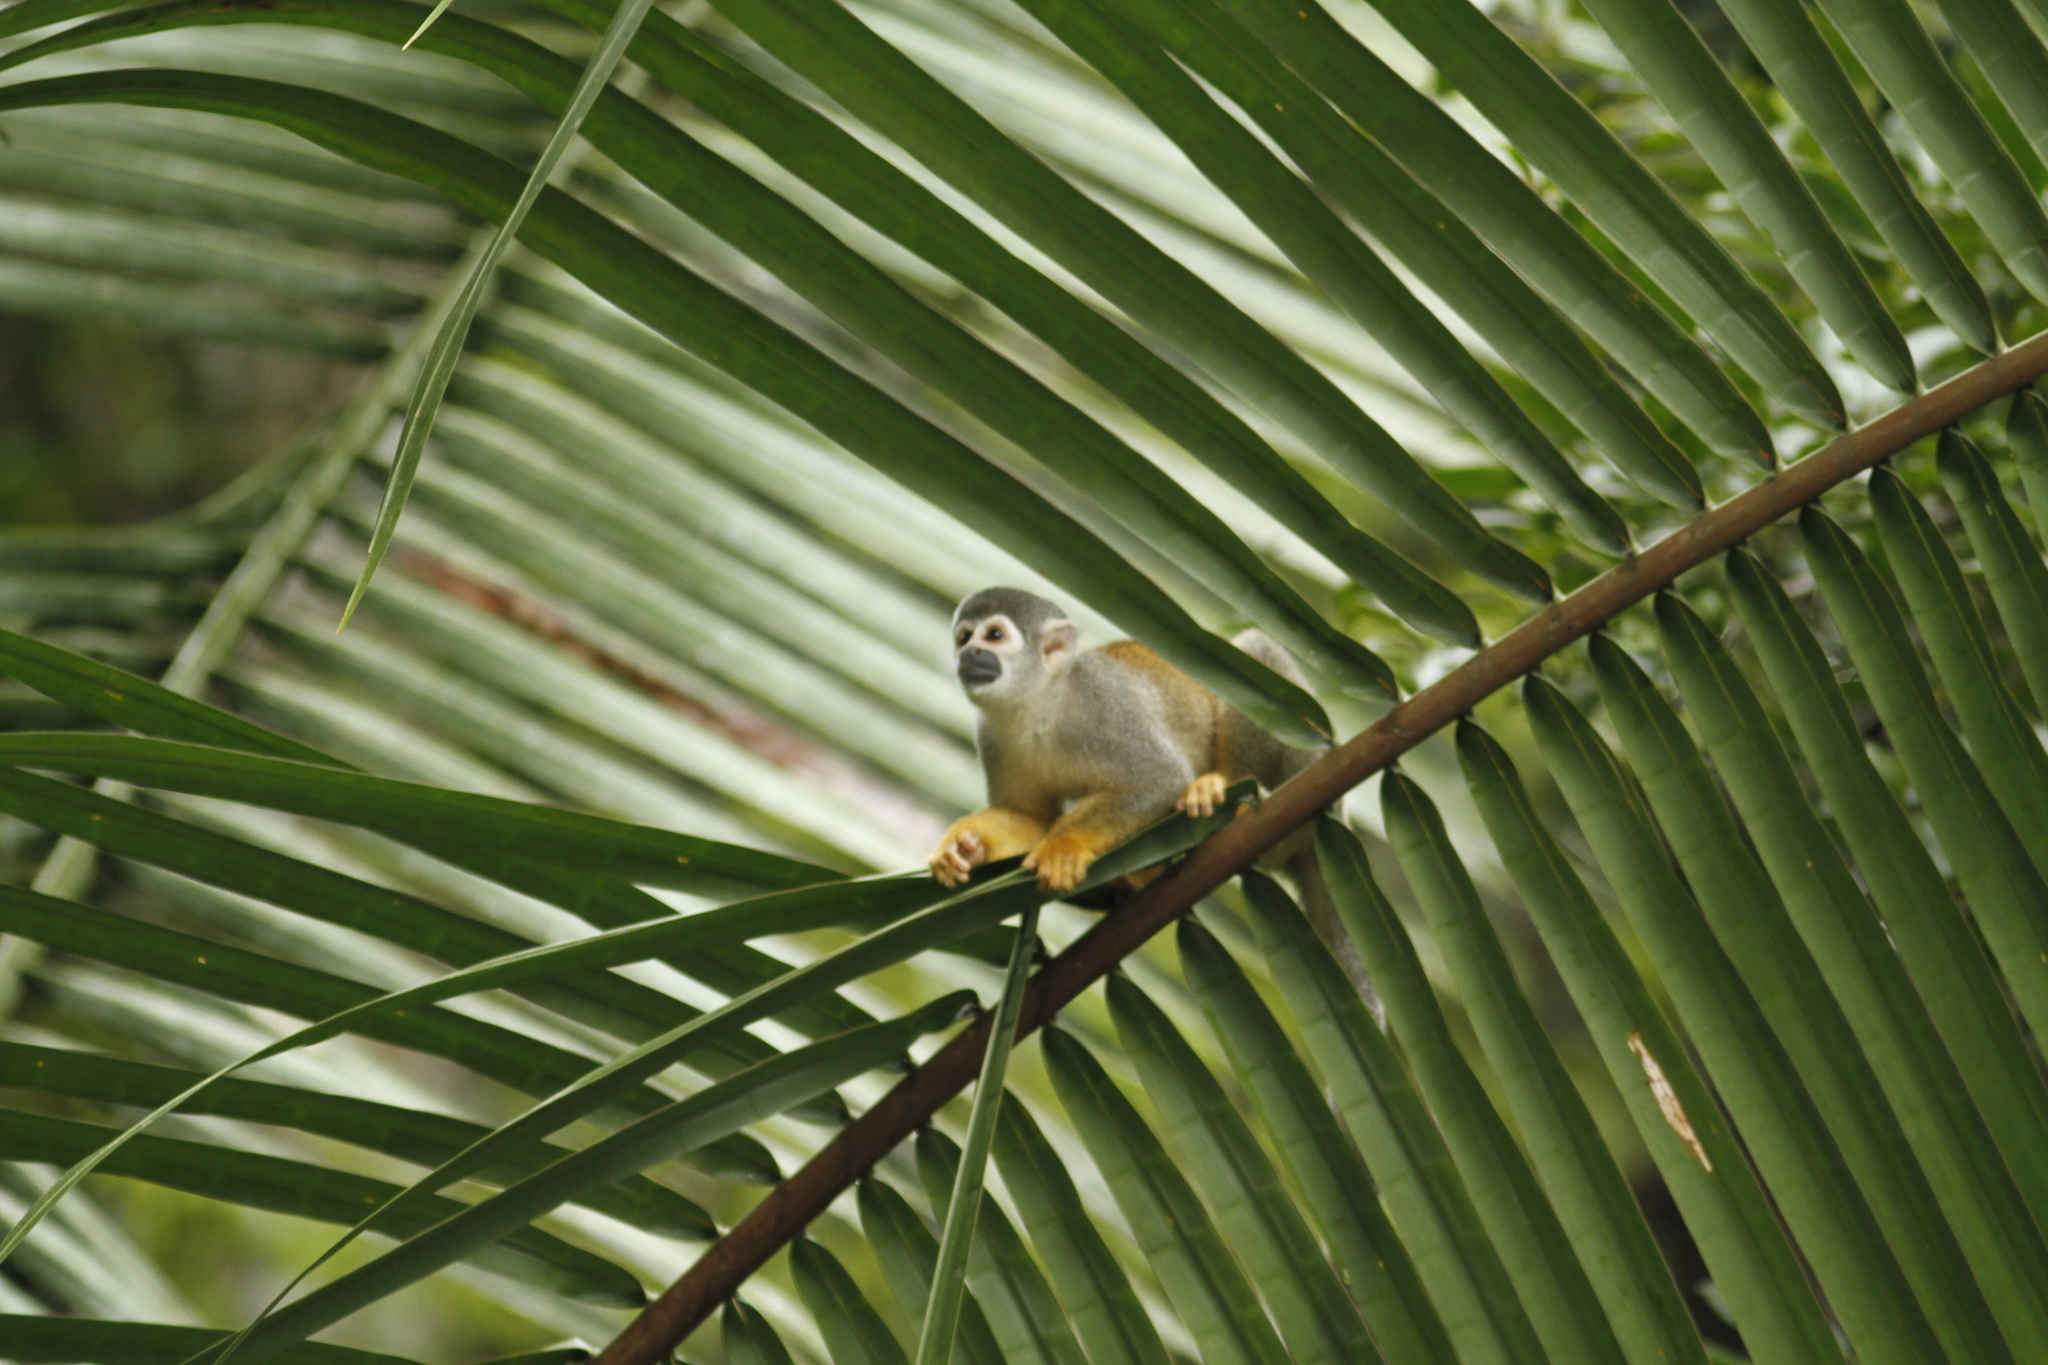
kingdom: Animalia
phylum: Chordata
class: Mammalia
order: Primates
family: Cebidae
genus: Saimiri
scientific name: Saimiri cassiquiarensis
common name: Humboldt’s squirrel monkey
